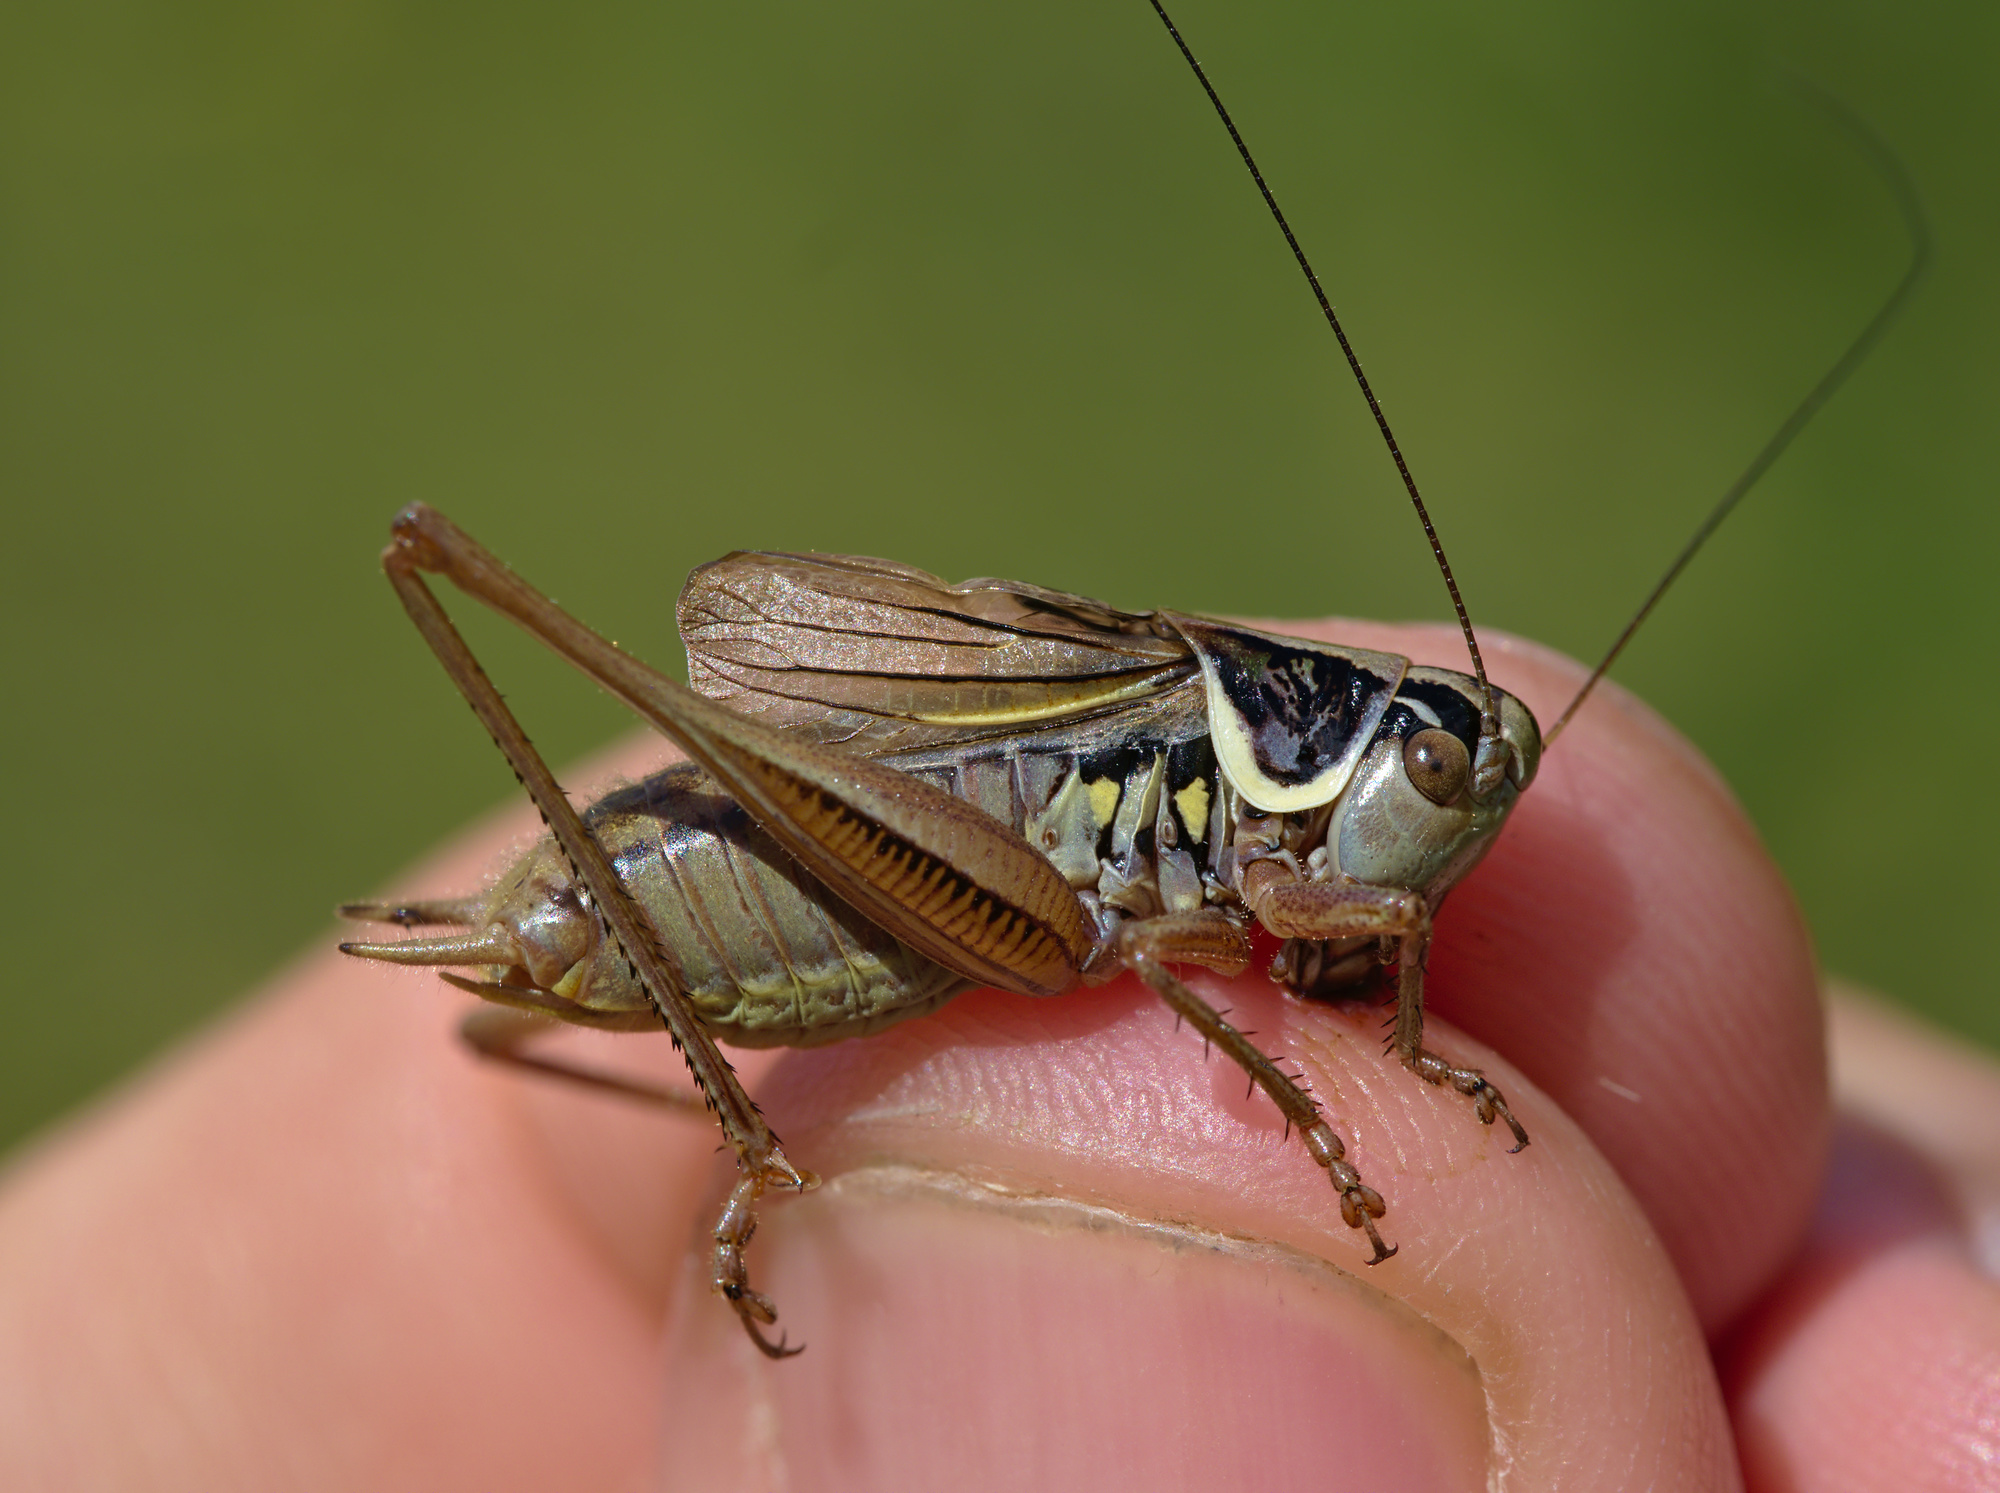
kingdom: Animalia
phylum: Arthropoda
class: Insecta
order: Orthoptera
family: Tettigoniidae
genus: Roeseliana
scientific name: Roeseliana roeselii
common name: Roesel's bush cricket
